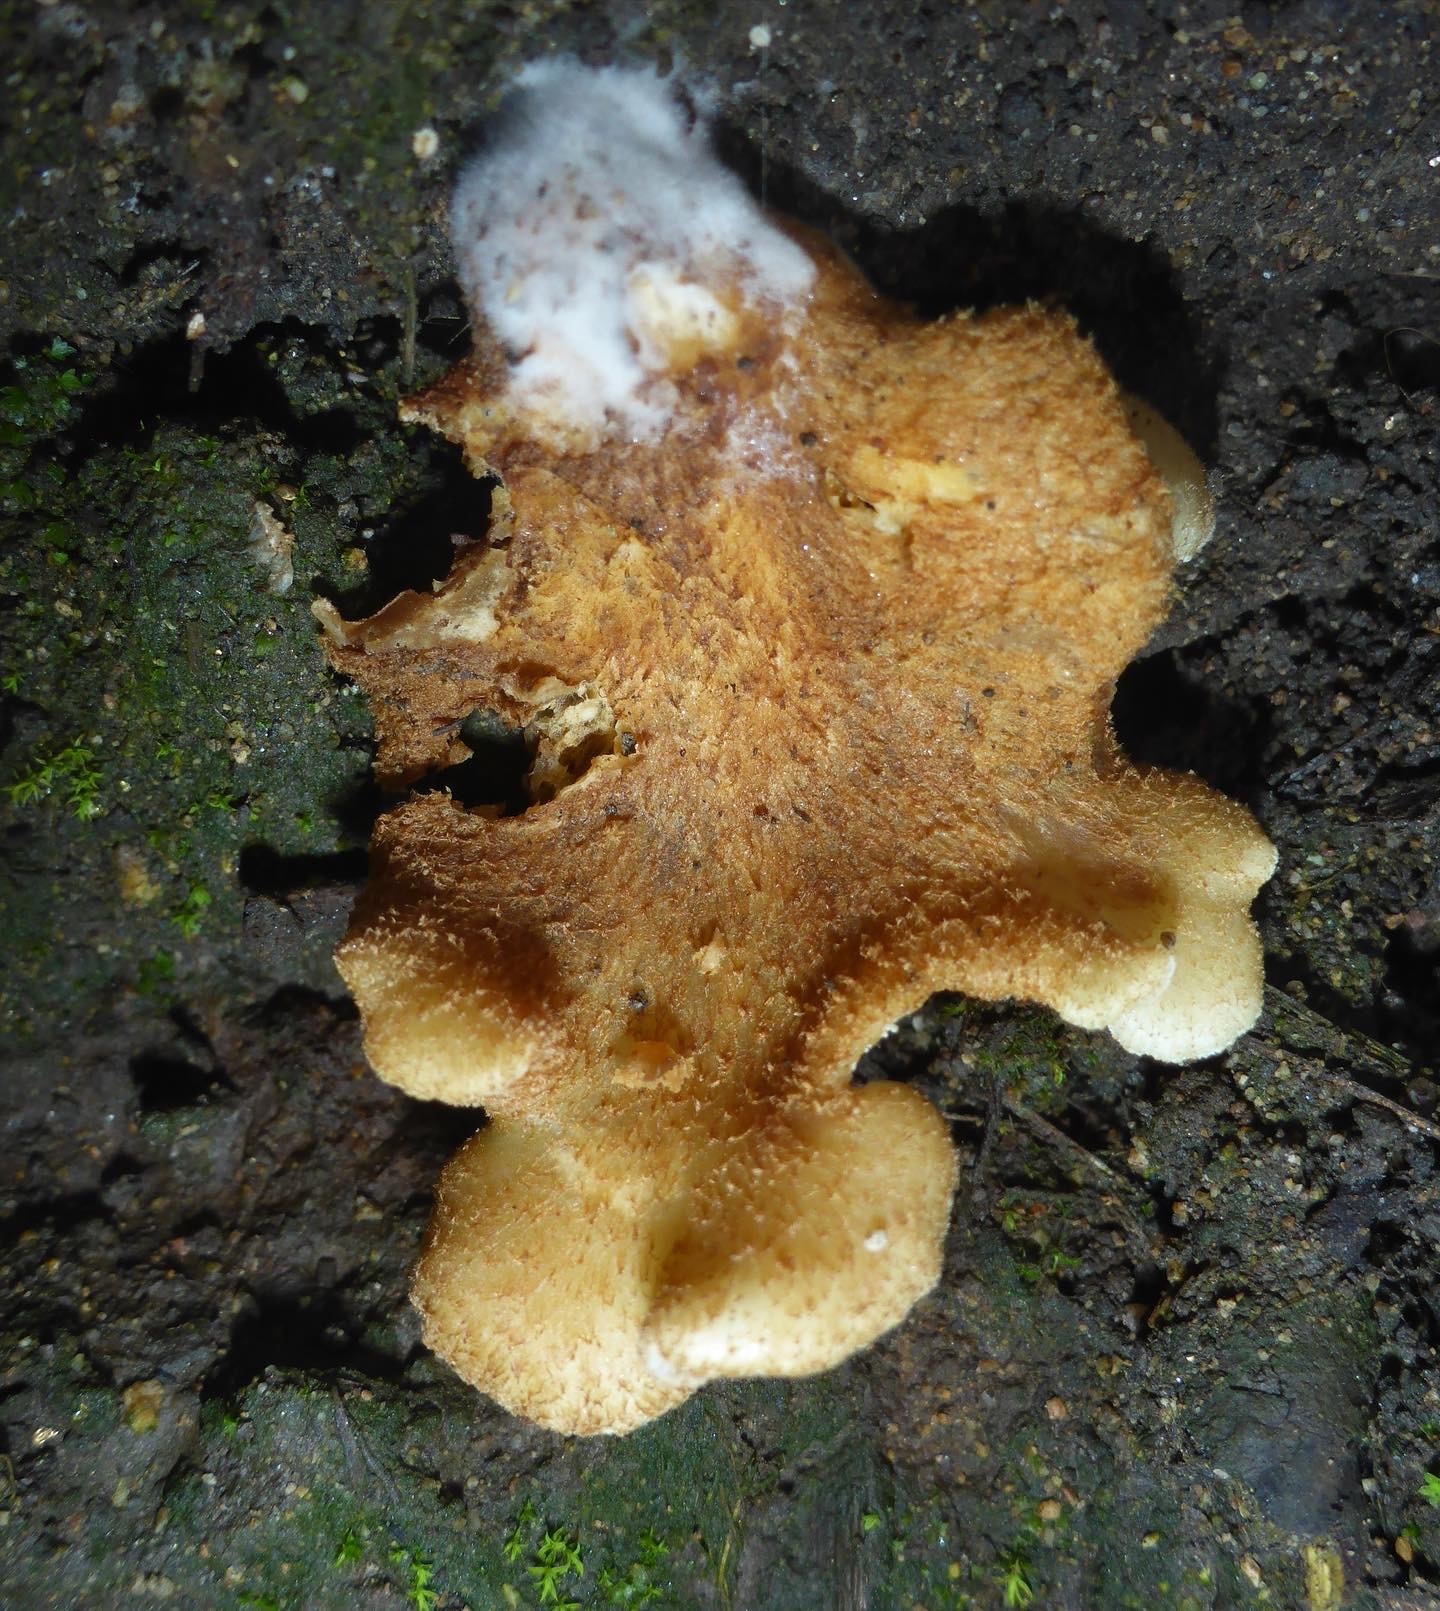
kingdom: Fungi
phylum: Basidiomycota
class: Agaricomycetes
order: Agaricales
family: Crepidotaceae
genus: Crepidotus
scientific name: Crepidotus mollis
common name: Peeling oysterling
